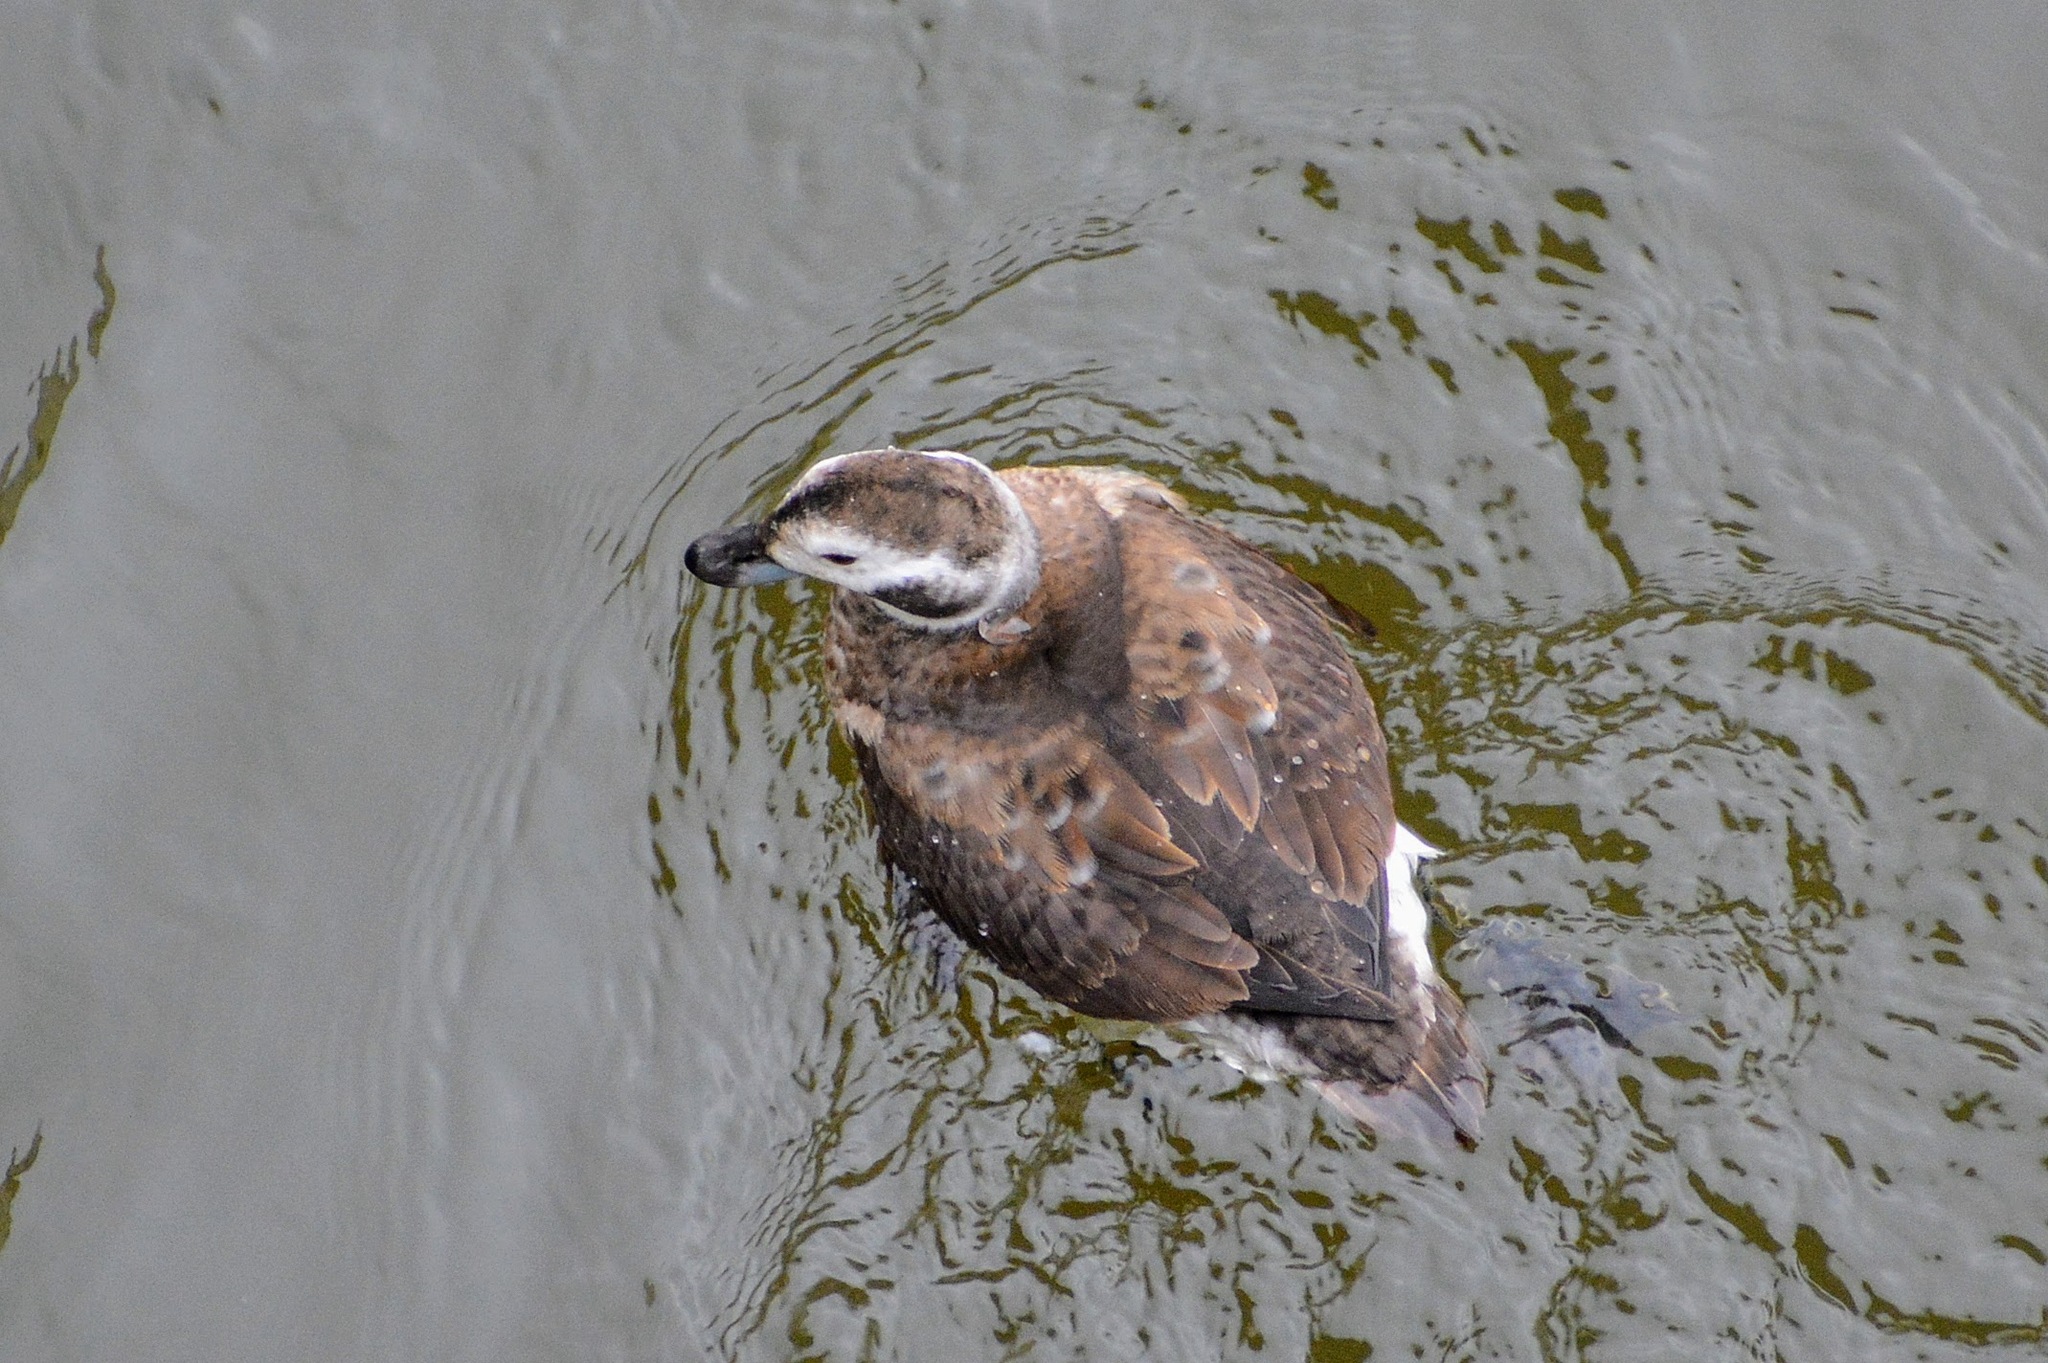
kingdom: Animalia
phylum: Chordata
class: Aves
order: Anseriformes
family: Anatidae
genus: Clangula
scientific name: Clangula hyemalis
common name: Long-tailed duck
